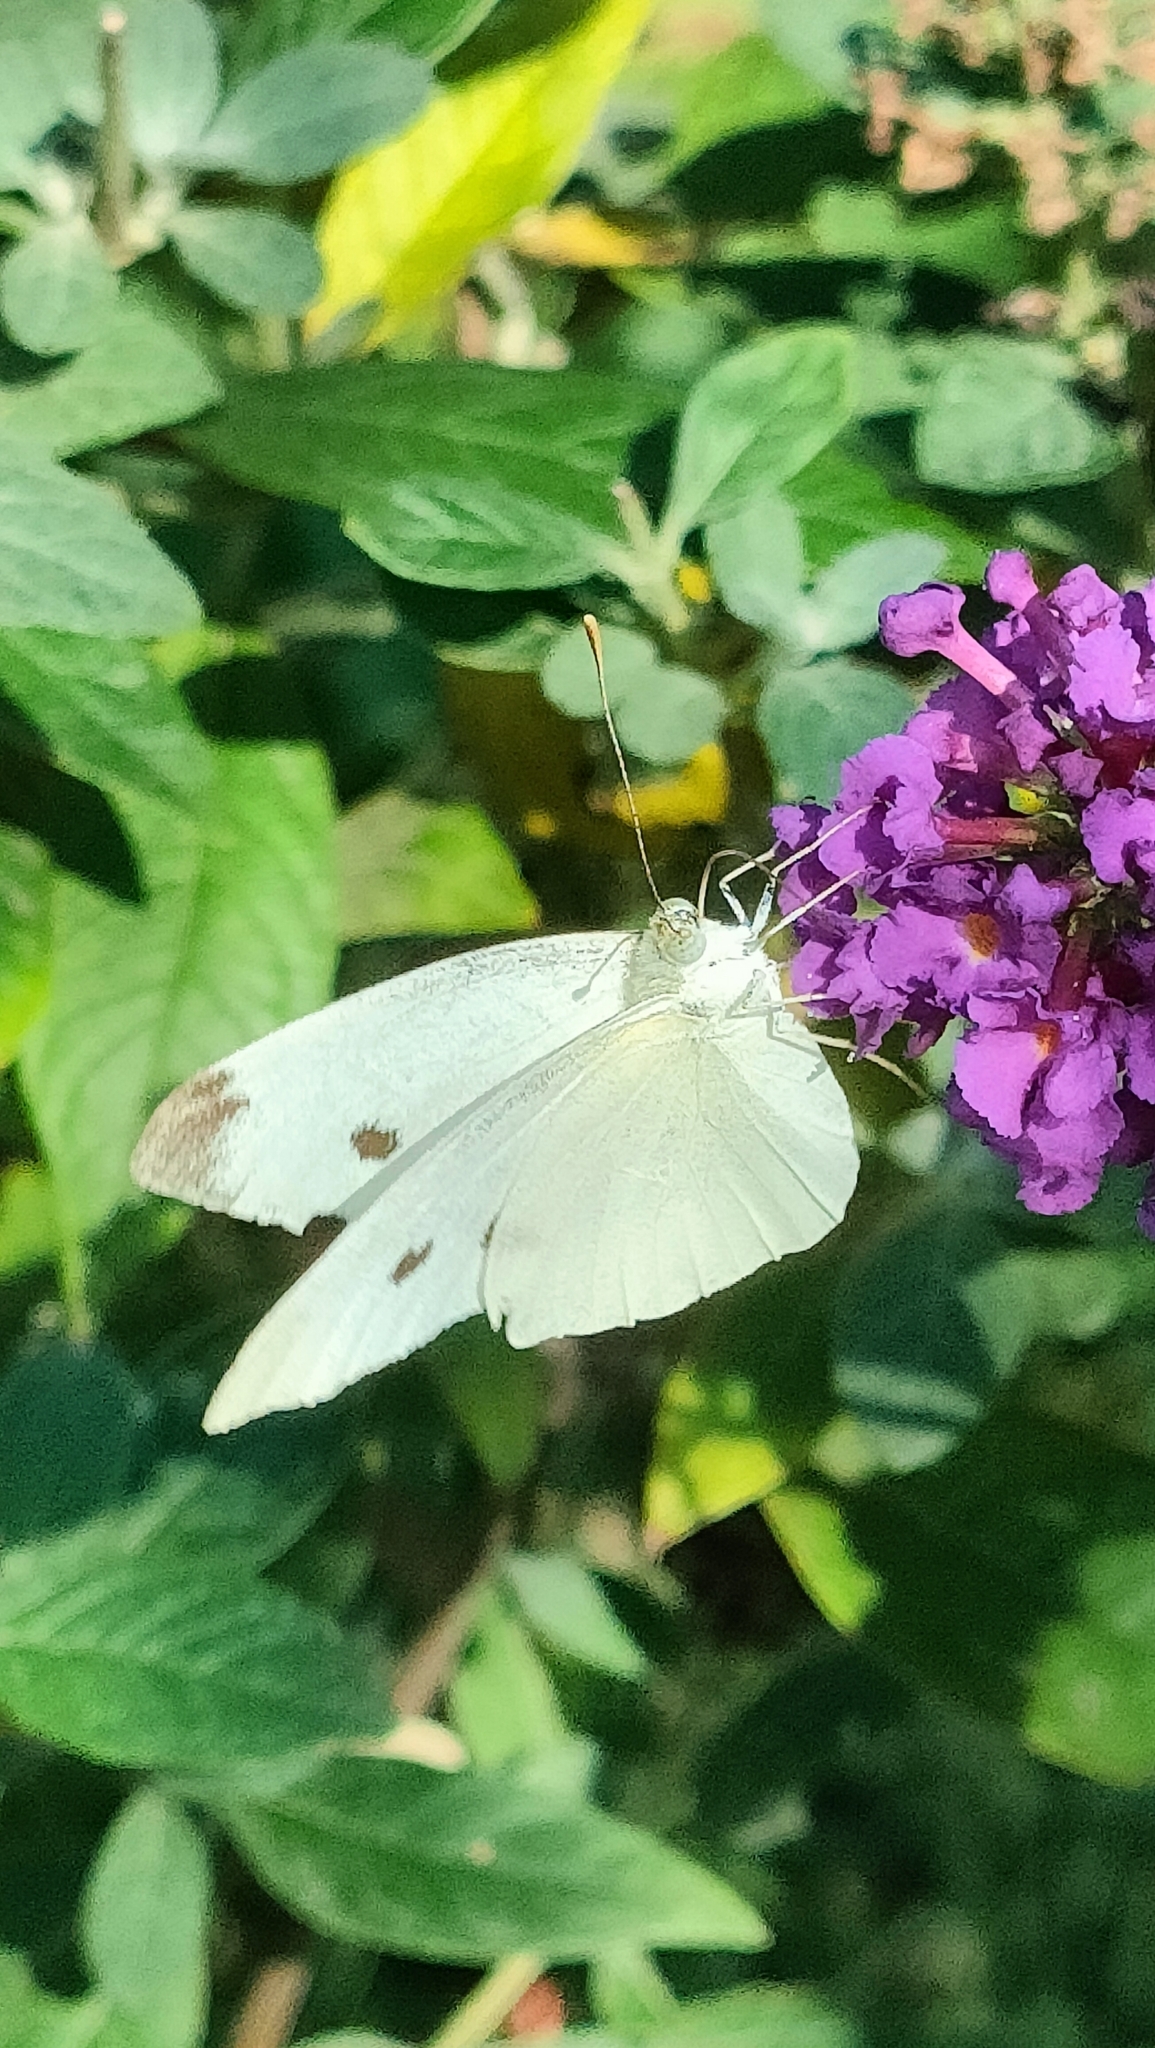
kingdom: Animalia
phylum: Arthropoda
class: Insecta
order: Lepidoptera
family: Pieridae
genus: Pieris
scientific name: Pieris rapae
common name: Small white
